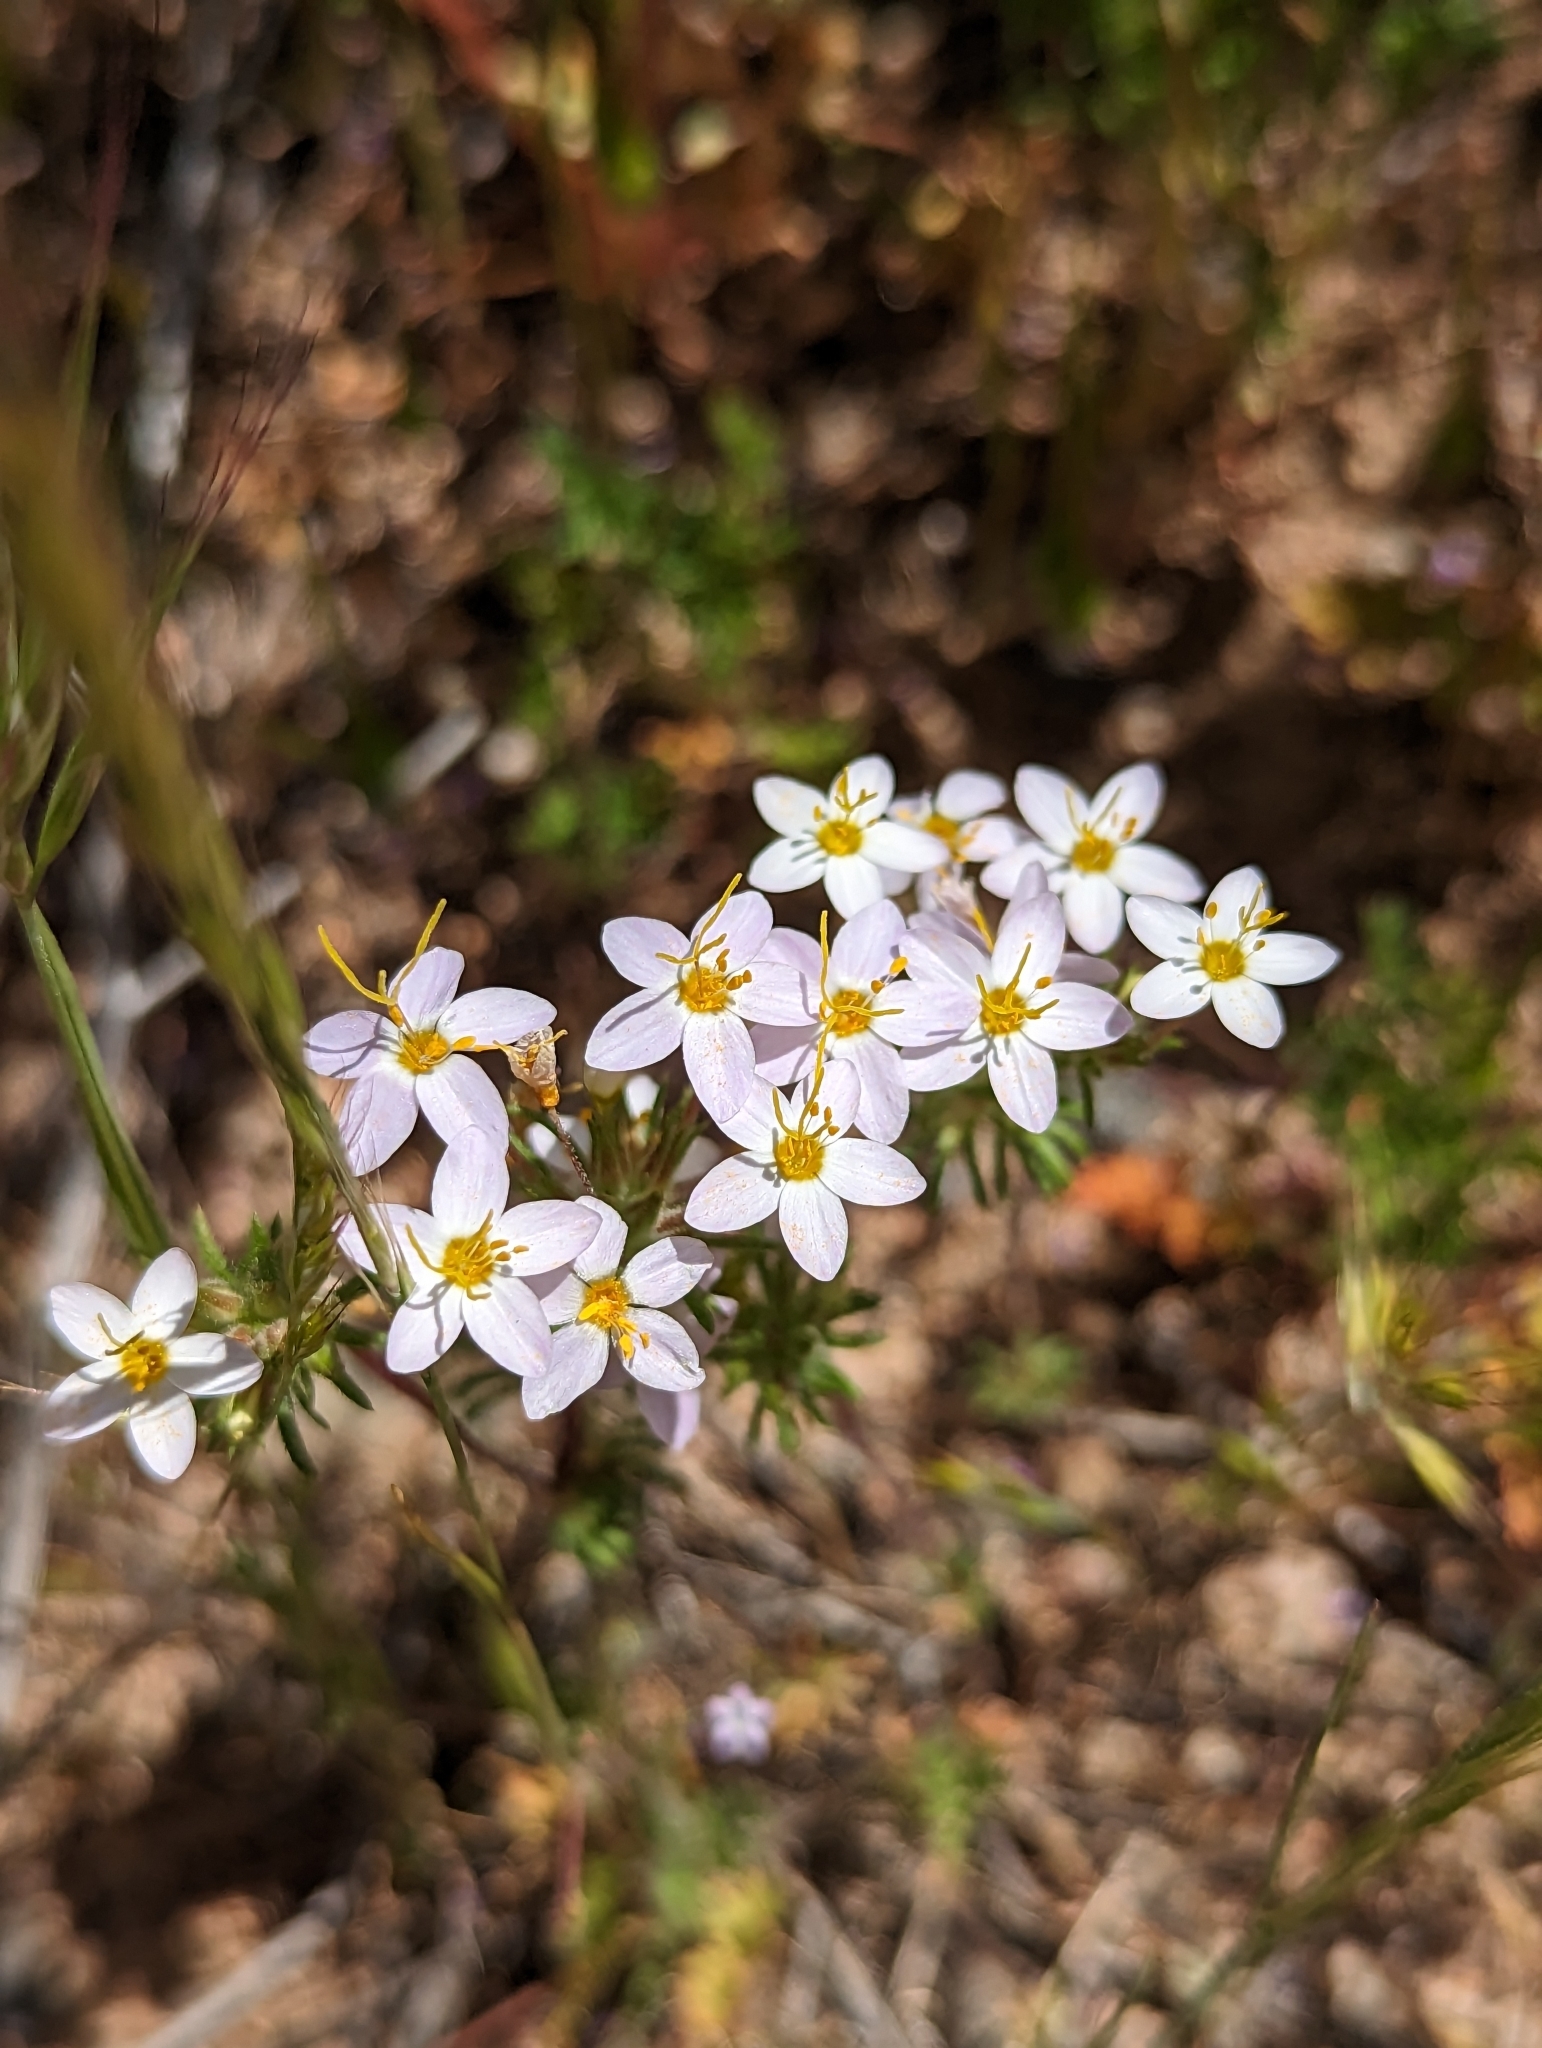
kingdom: Plantae
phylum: Tracheophyta
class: Magnoliopsida
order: Ericales
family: Polemoniaceae
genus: Leptosiphon
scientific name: Leptosiphon parviflorus
